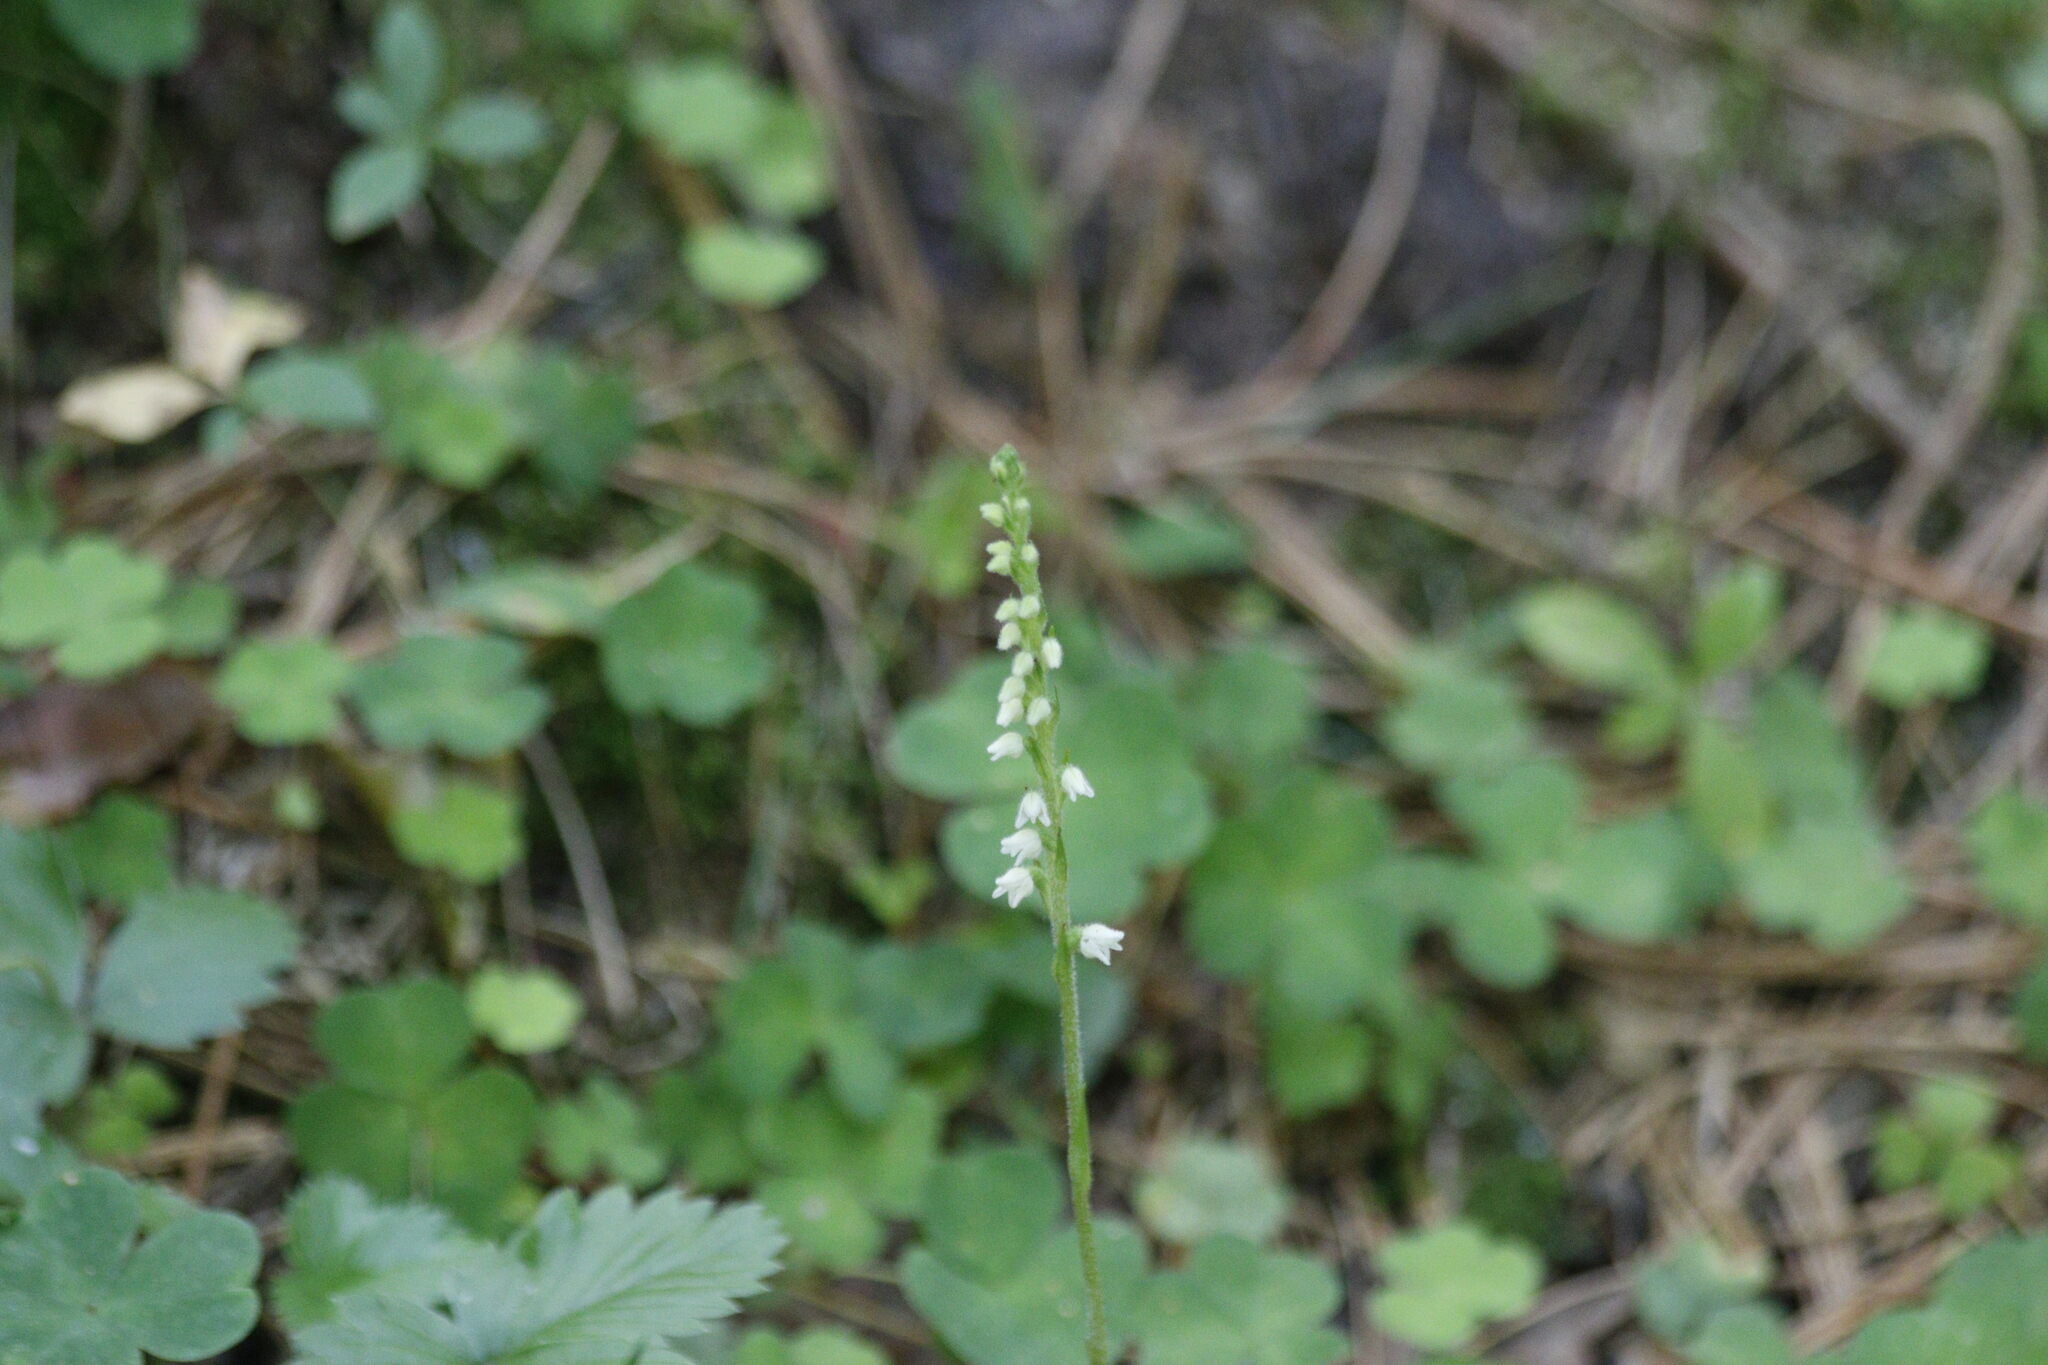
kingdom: Plantae
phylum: Tracheophyta
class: Liliopsida
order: Asparagales
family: Orchidaceae
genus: Goodyera
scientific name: Goodyera repens
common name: Creeping lady's-tresses
